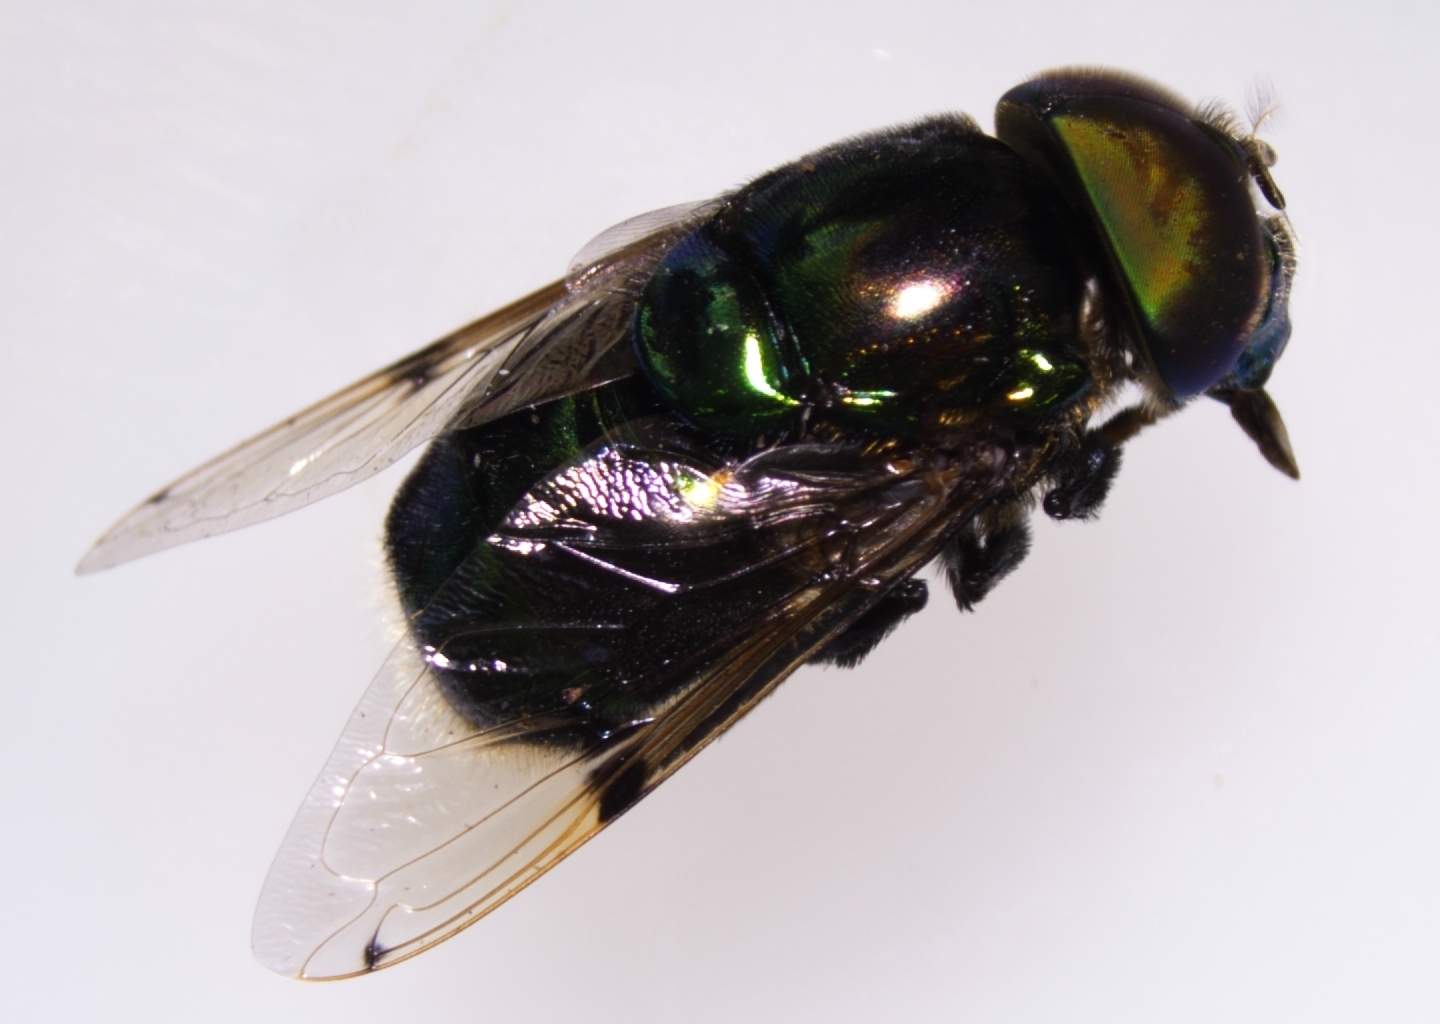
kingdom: Animalia
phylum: Arthropoda
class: Insecta
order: Diptera
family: Syrphidae
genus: Ornidia
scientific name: Ornidia obesa
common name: Syrphid fly
